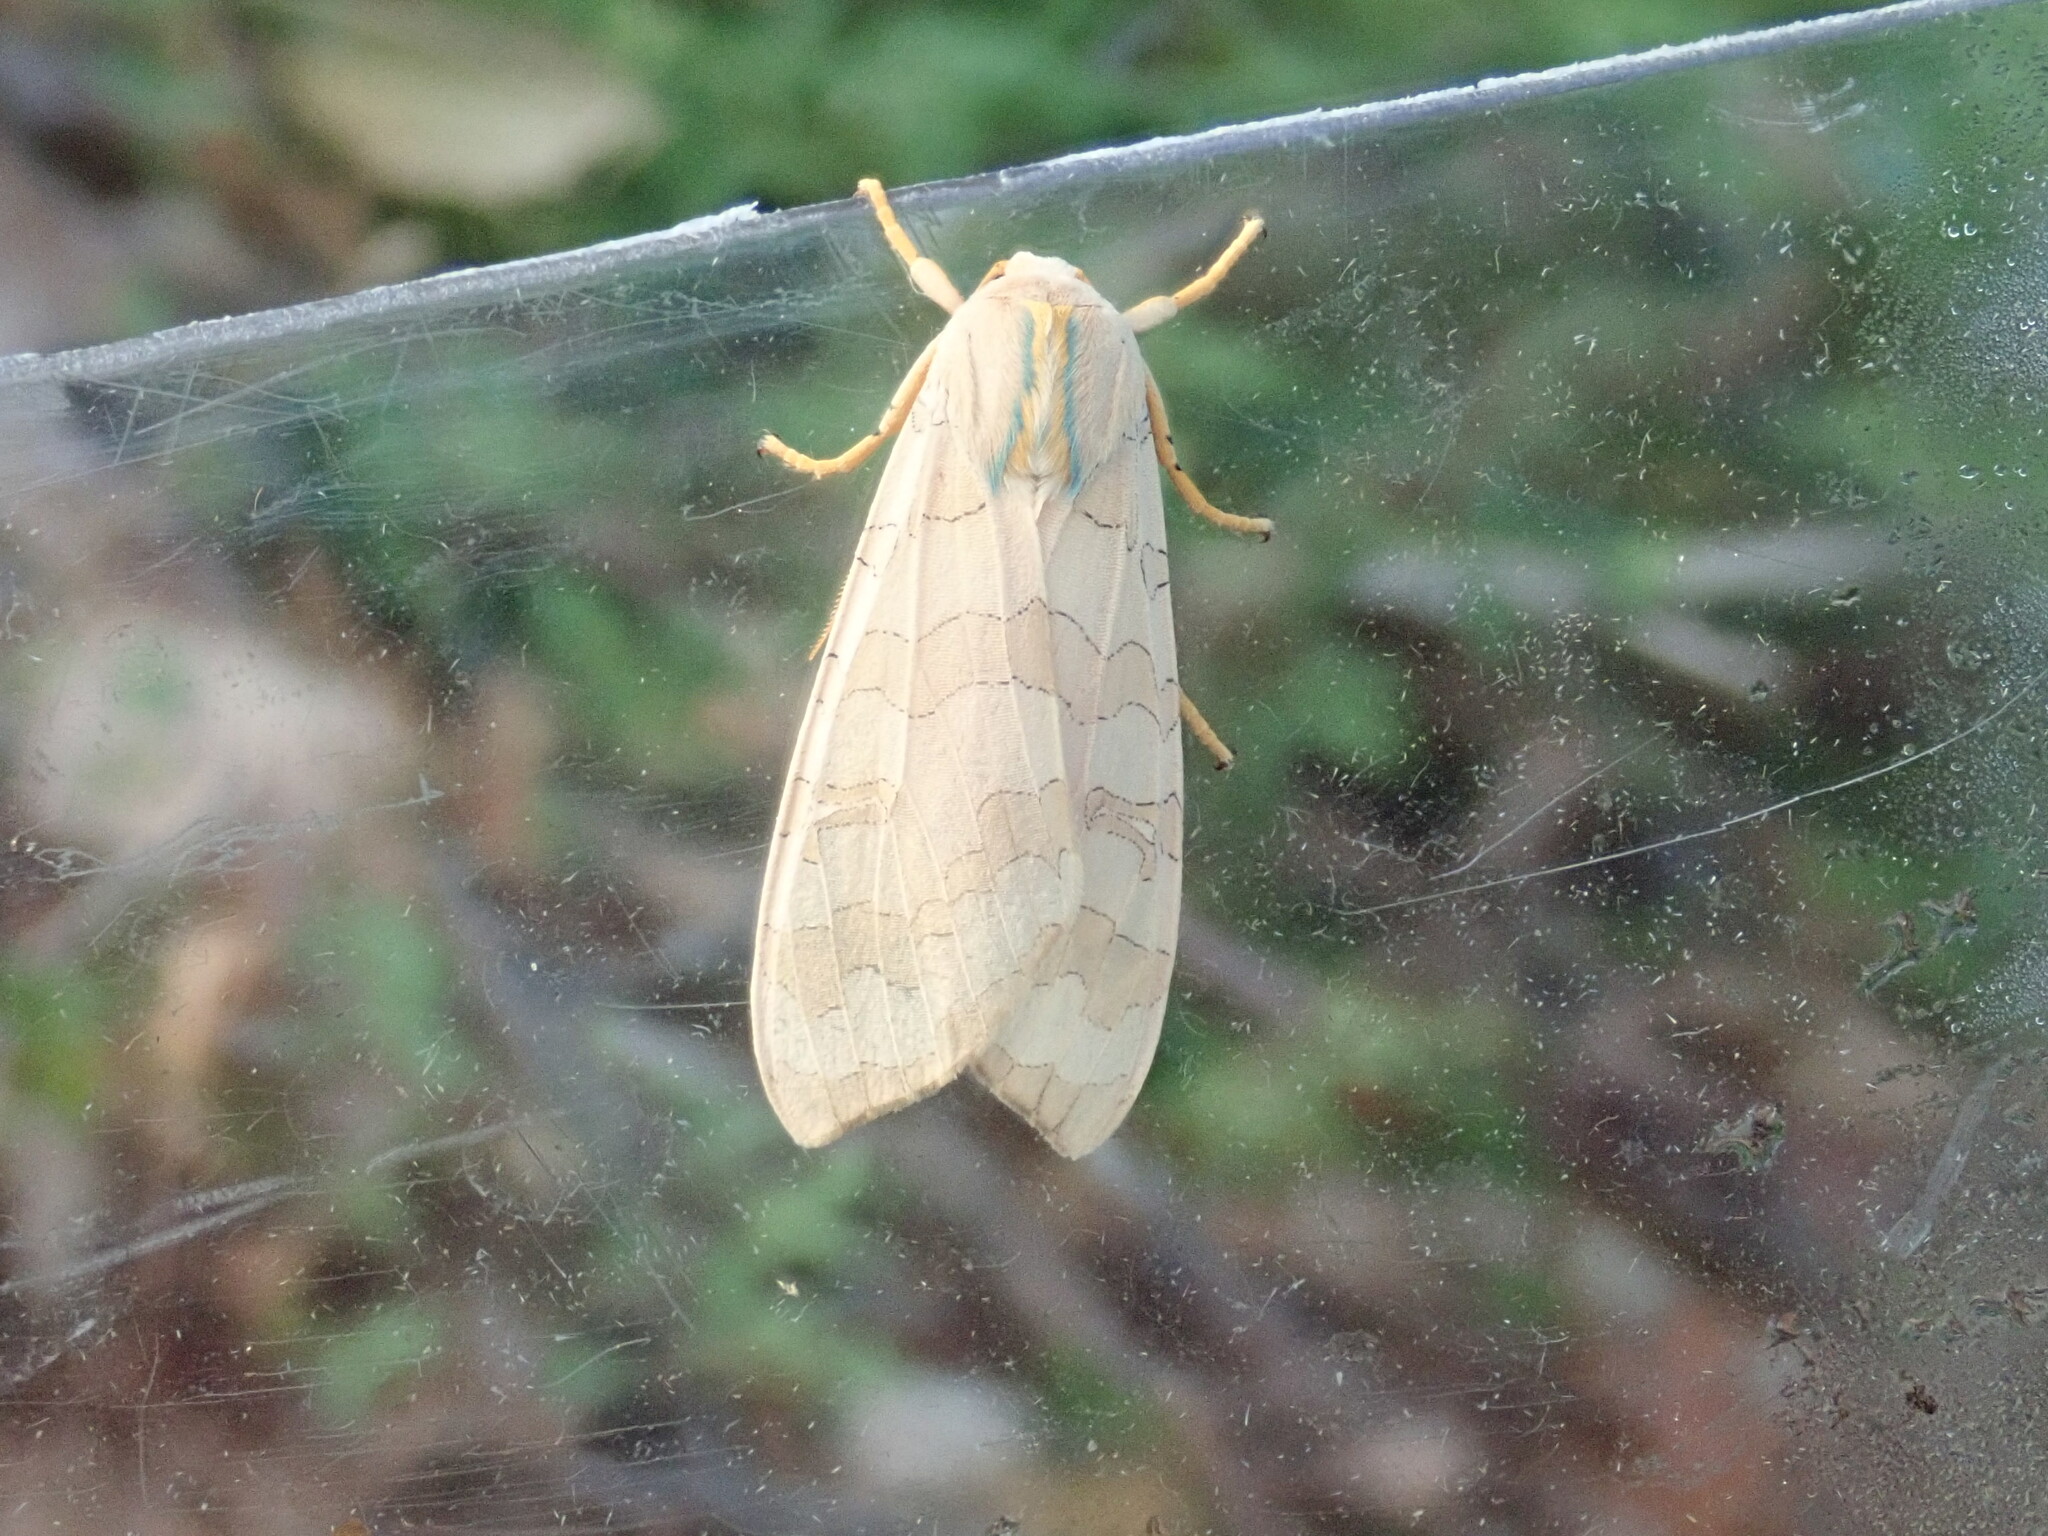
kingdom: Animalia
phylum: Arthropoda
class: Insecta
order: Lepidoptera
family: Erebidae
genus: Halysidota
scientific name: Halysidota tessellaris
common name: Banded tussock moth
